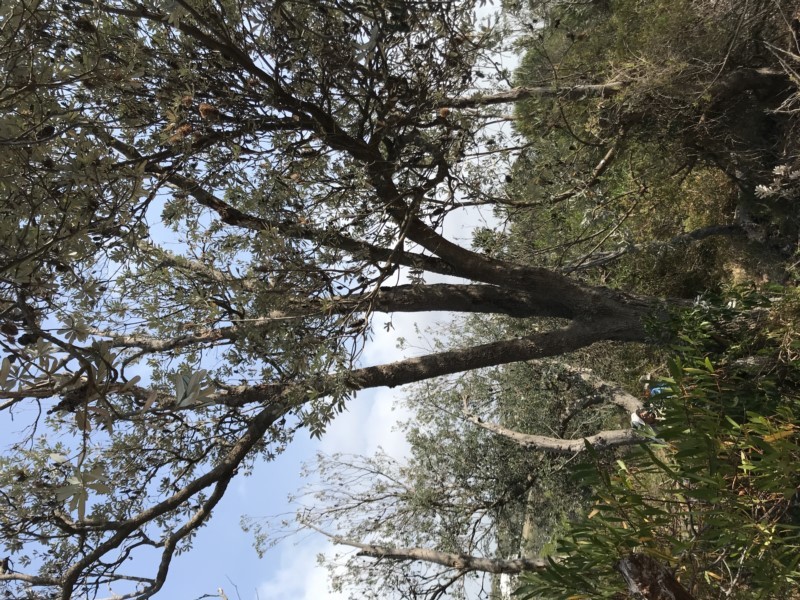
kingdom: Plantae
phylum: Tracheophyta
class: Magnoliopsida
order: Proteales
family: Proteaceae
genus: Banksia
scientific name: Banksia integrifolia
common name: White-honeysuckle
